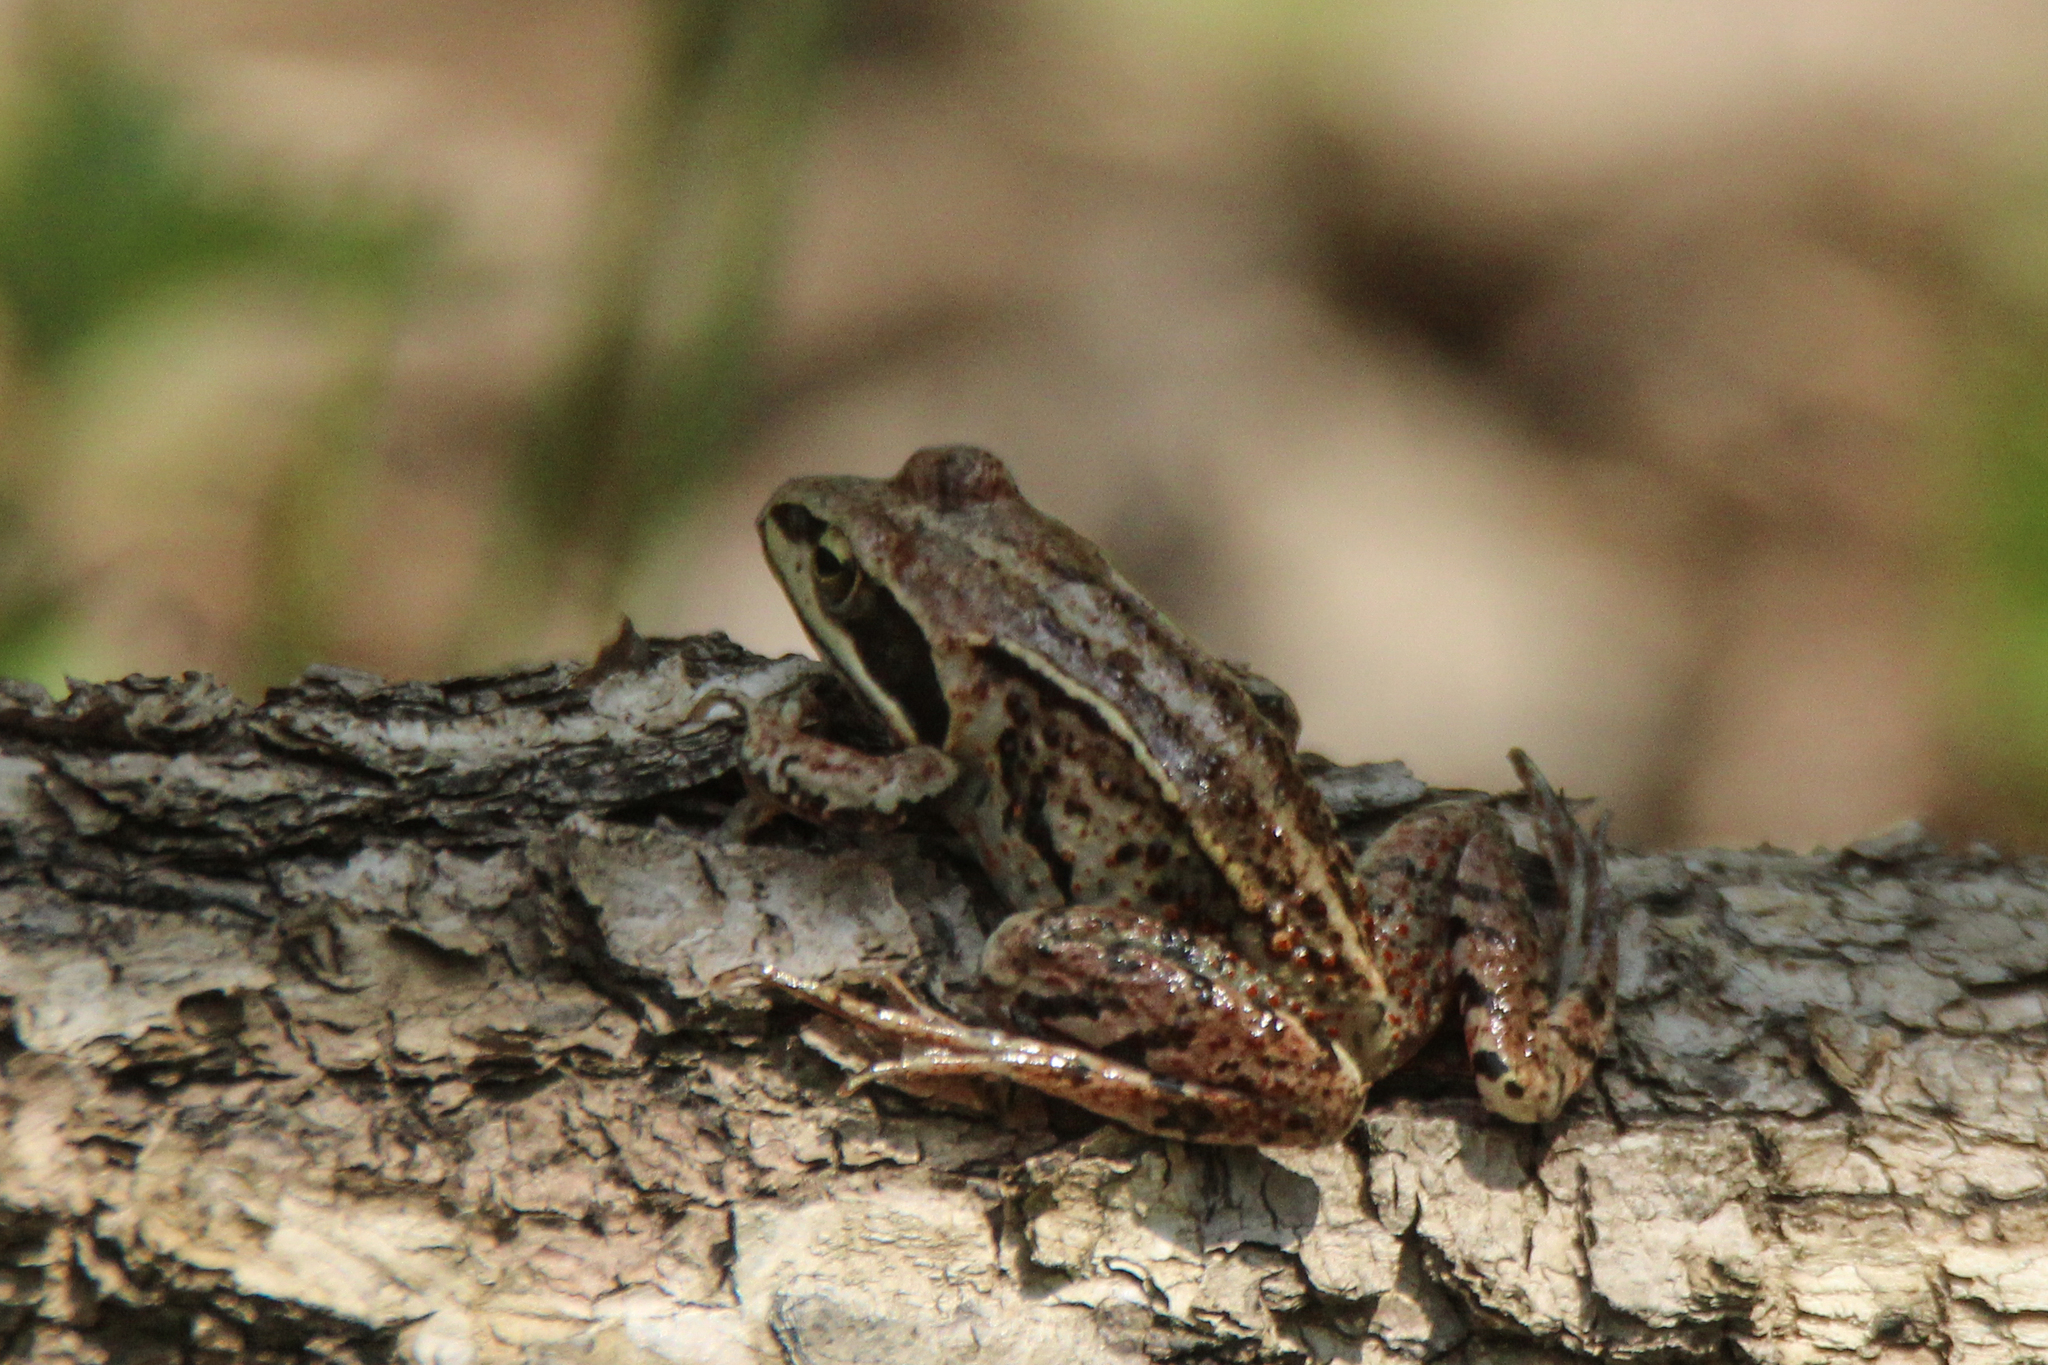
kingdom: Animalia
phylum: Chordata
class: Amphibia
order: Anura
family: Ranidae
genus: Rana
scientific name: Rana amurensis
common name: Amur brown frog
